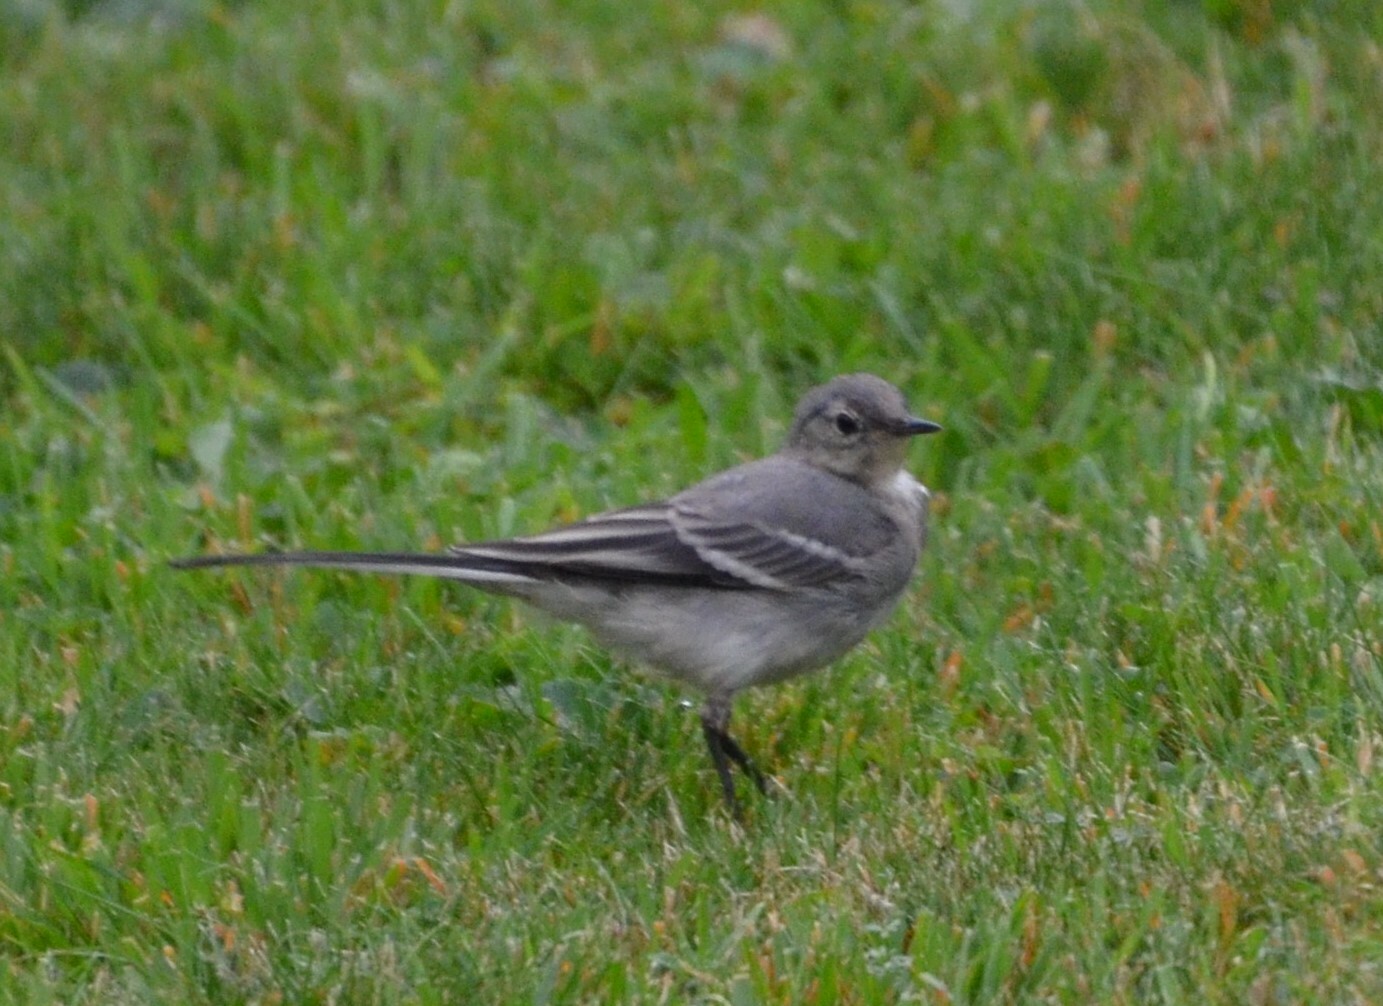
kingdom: Animalia
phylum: Chordata
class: Aves
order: Passeriformes
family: Motacillidae
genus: Motacilla
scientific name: Motacilla alba
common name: White wagtail
